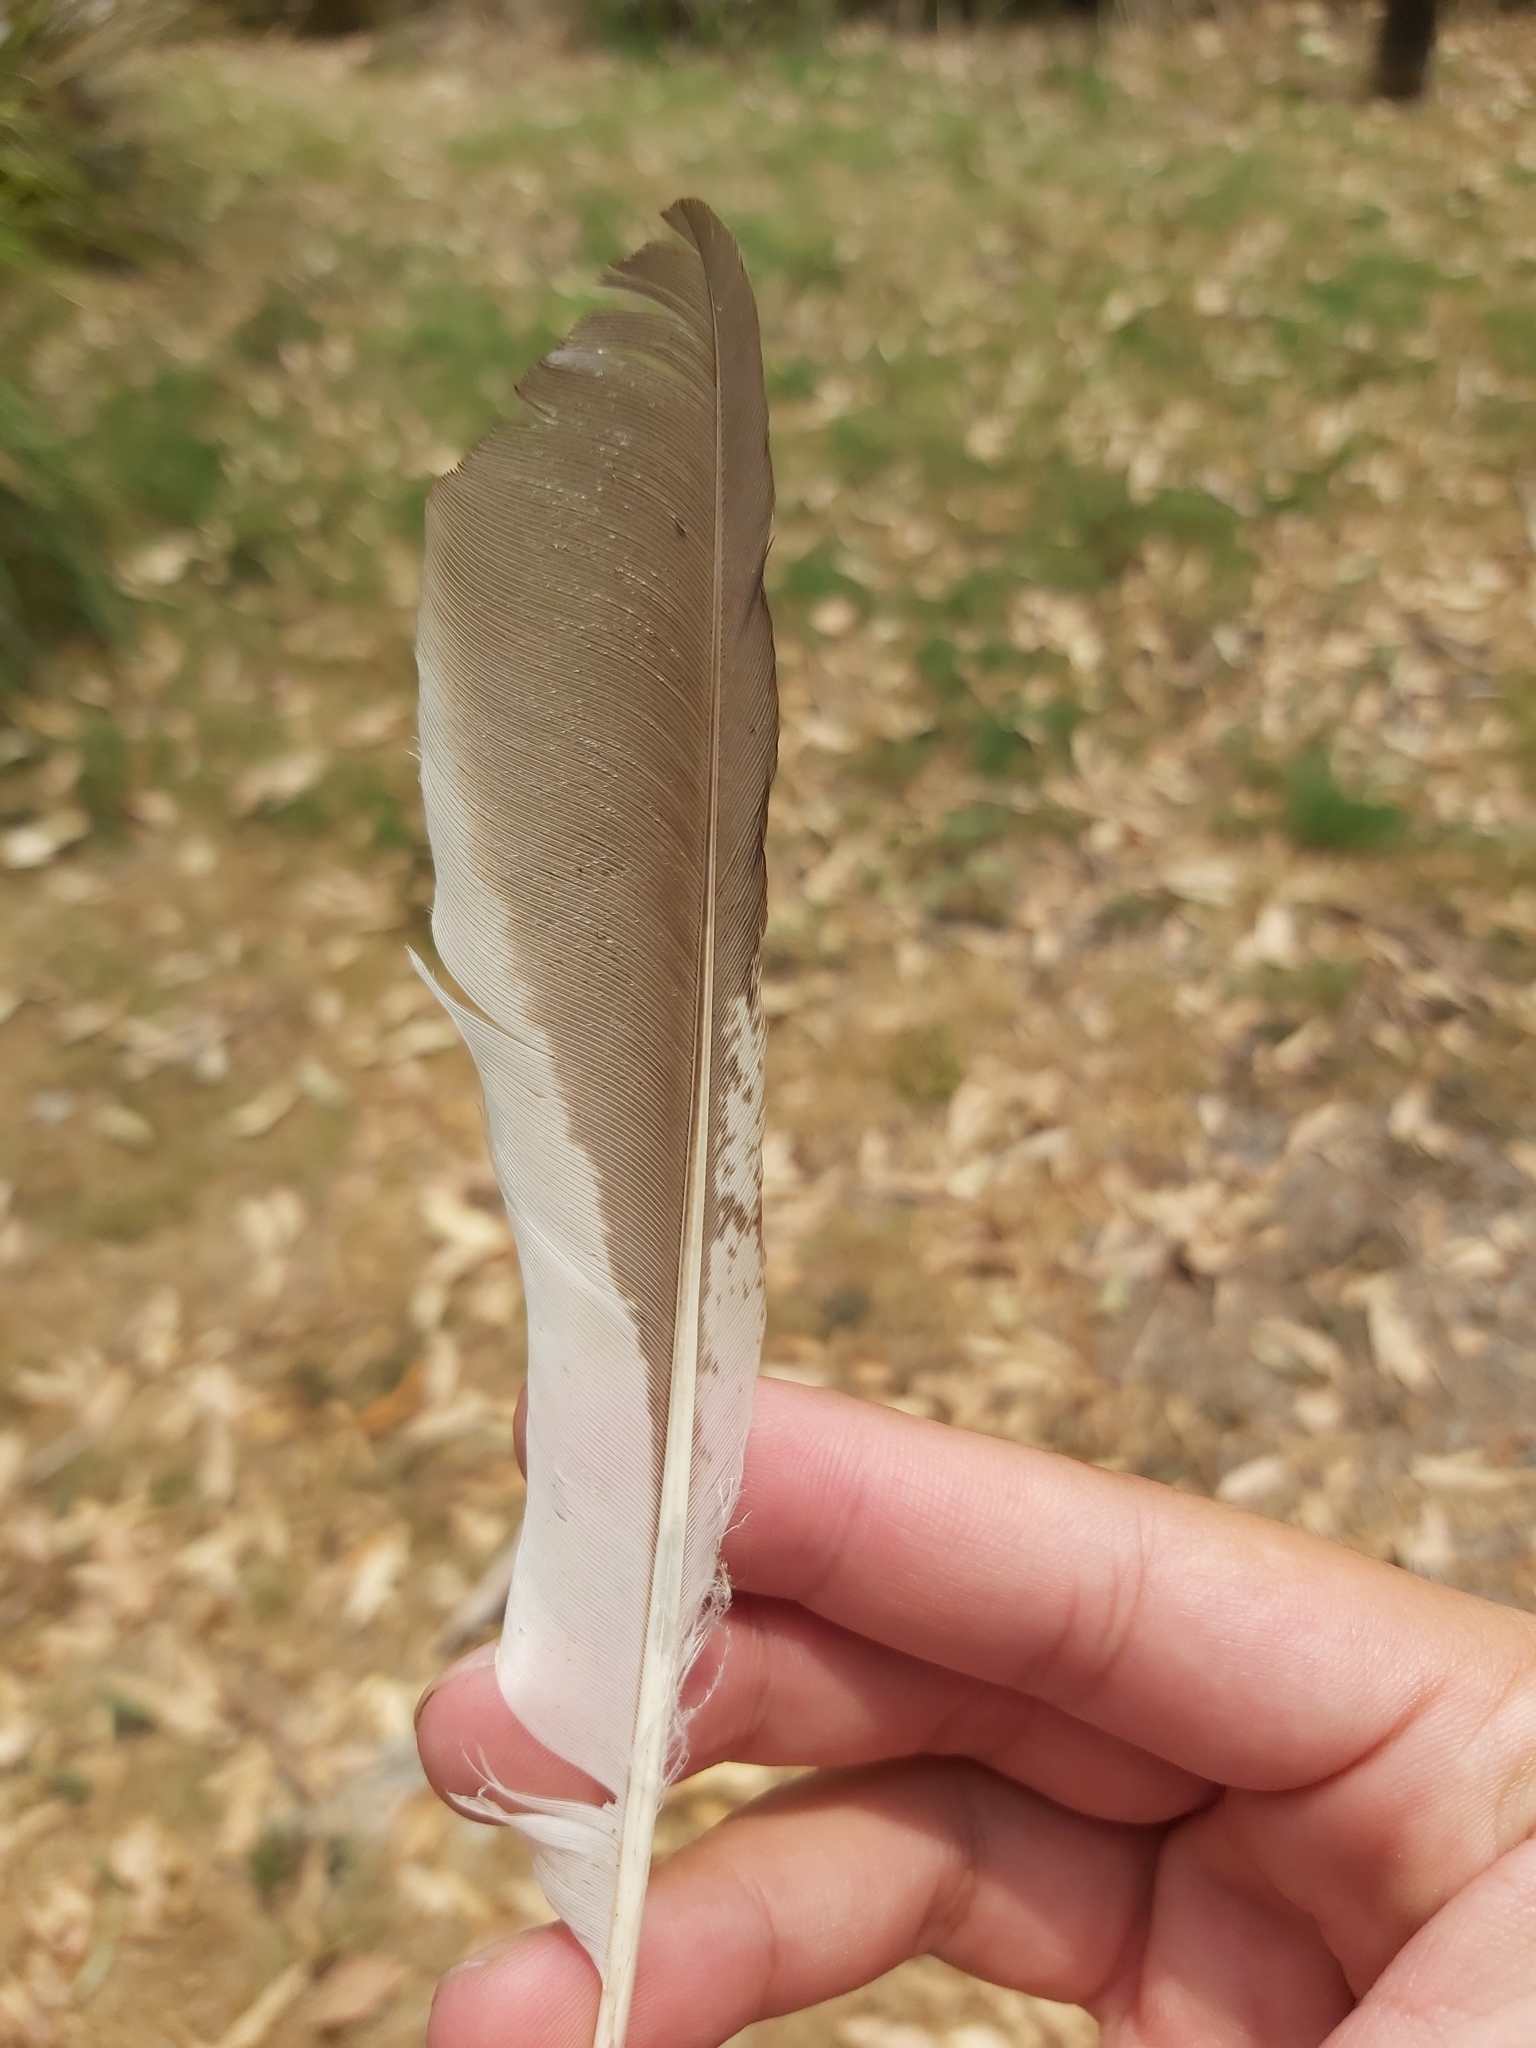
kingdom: Animalia
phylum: Chordata
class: Aves
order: Coraciiformes
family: Alcedinidae
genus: Dacelo
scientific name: Dacelo novaeguineae
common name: Laughing kookaburra
